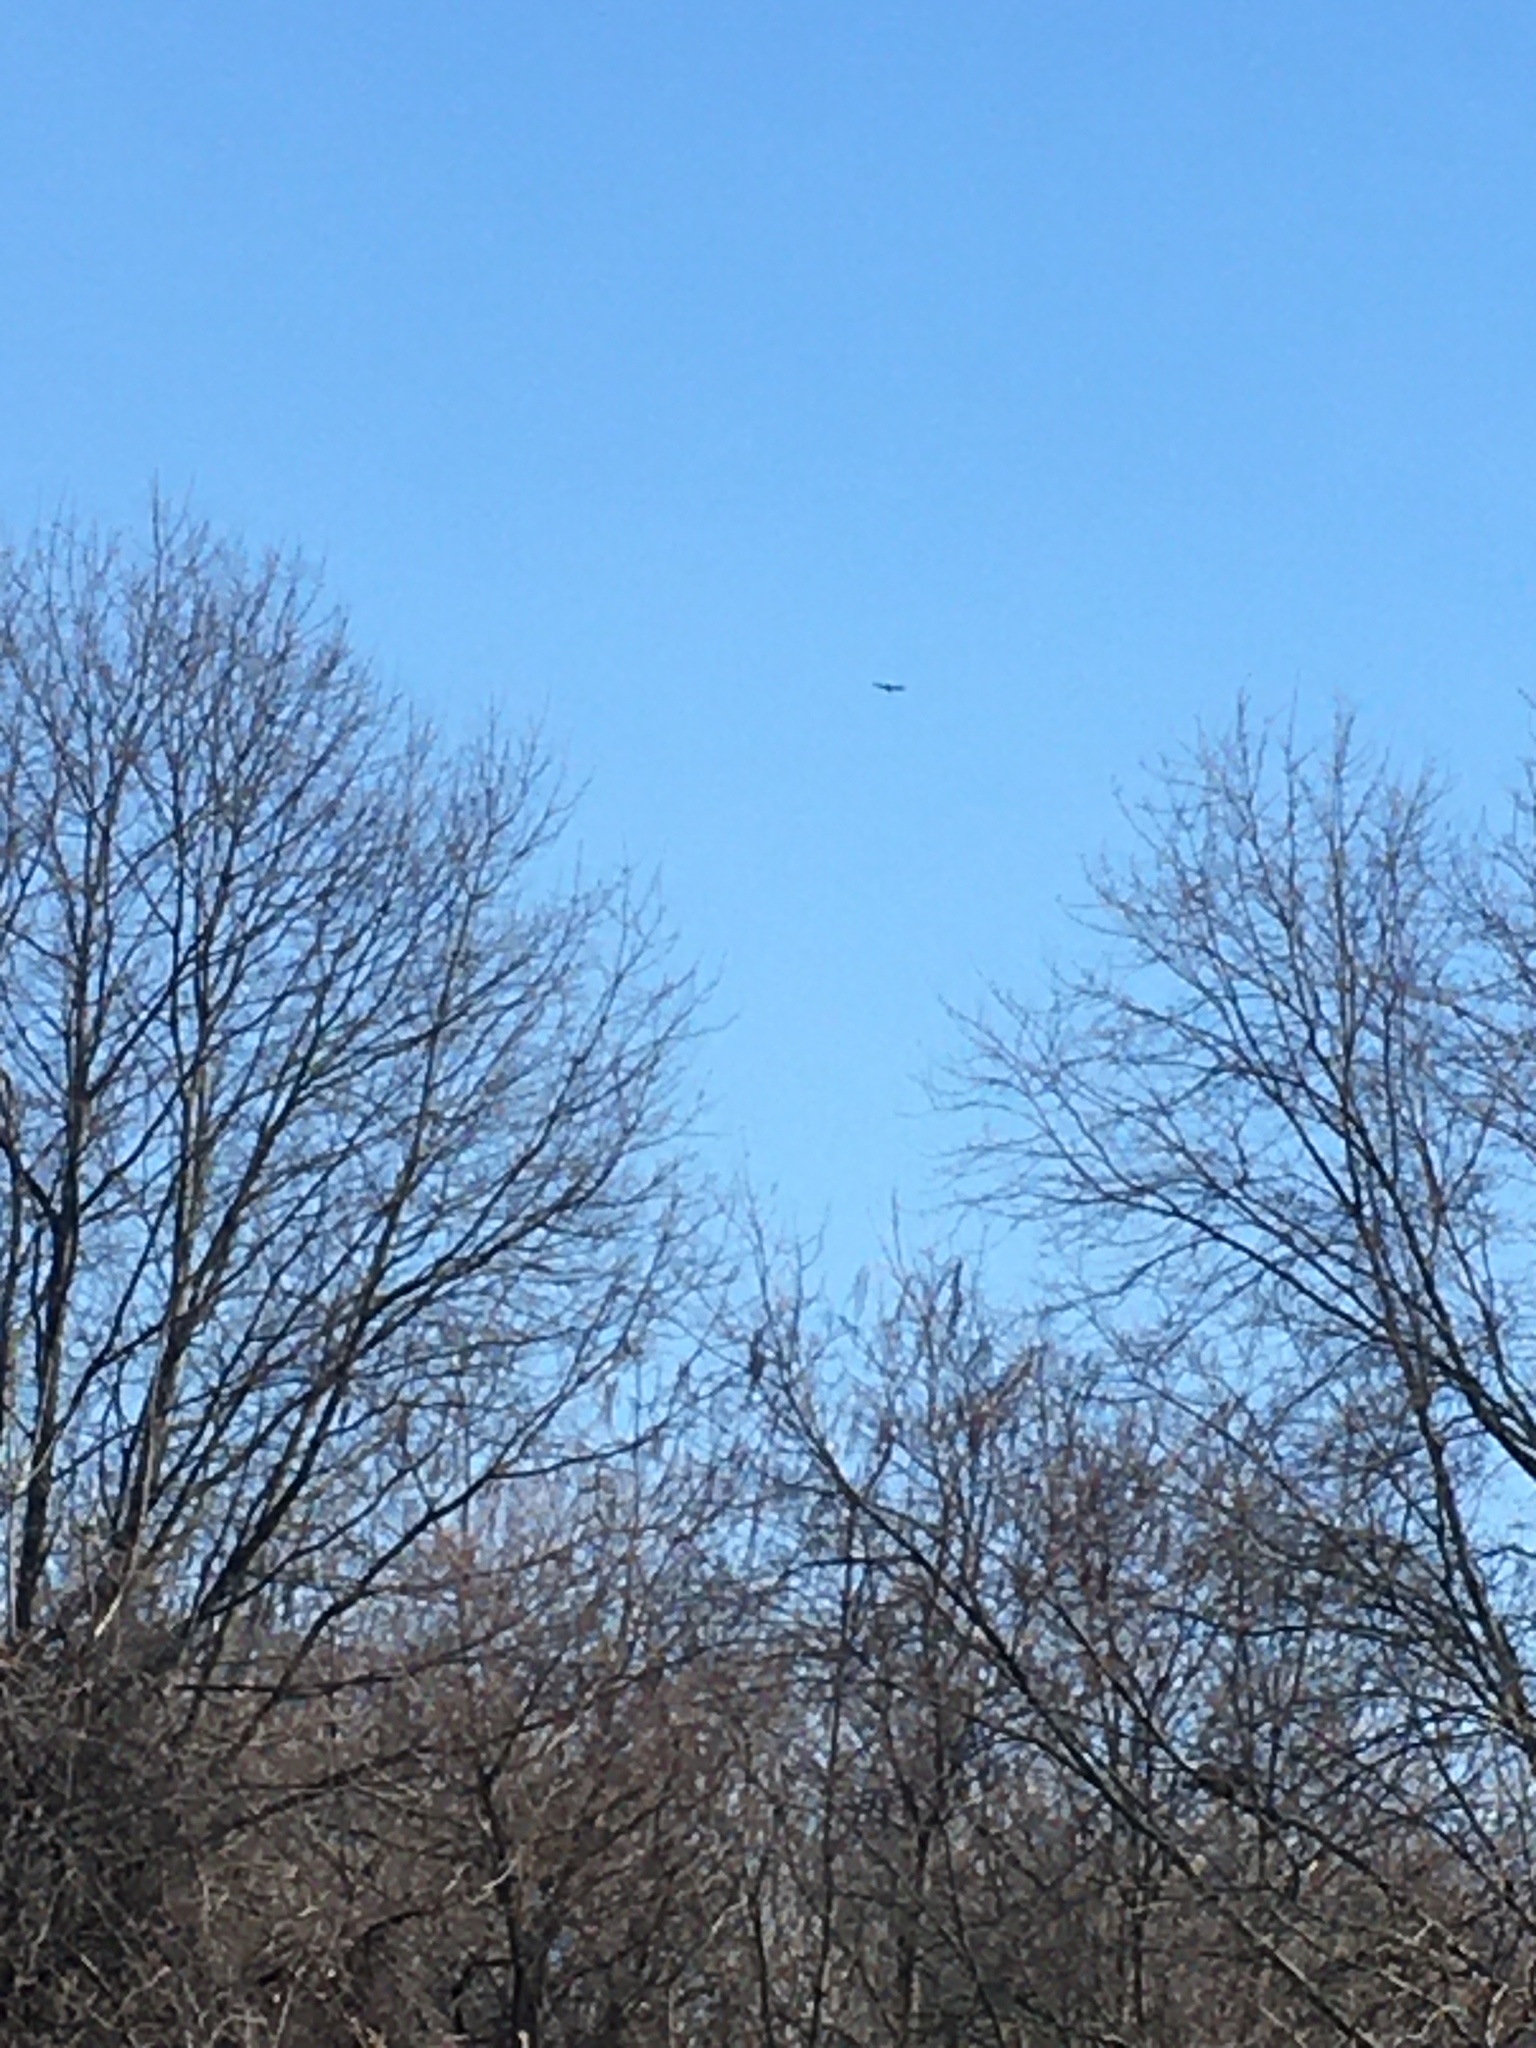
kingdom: Animalia
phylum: Chordata
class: Aves
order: Accipitriformes
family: Cathartidae
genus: Cathartes
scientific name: Cathartes aura
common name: Turkey vulture
